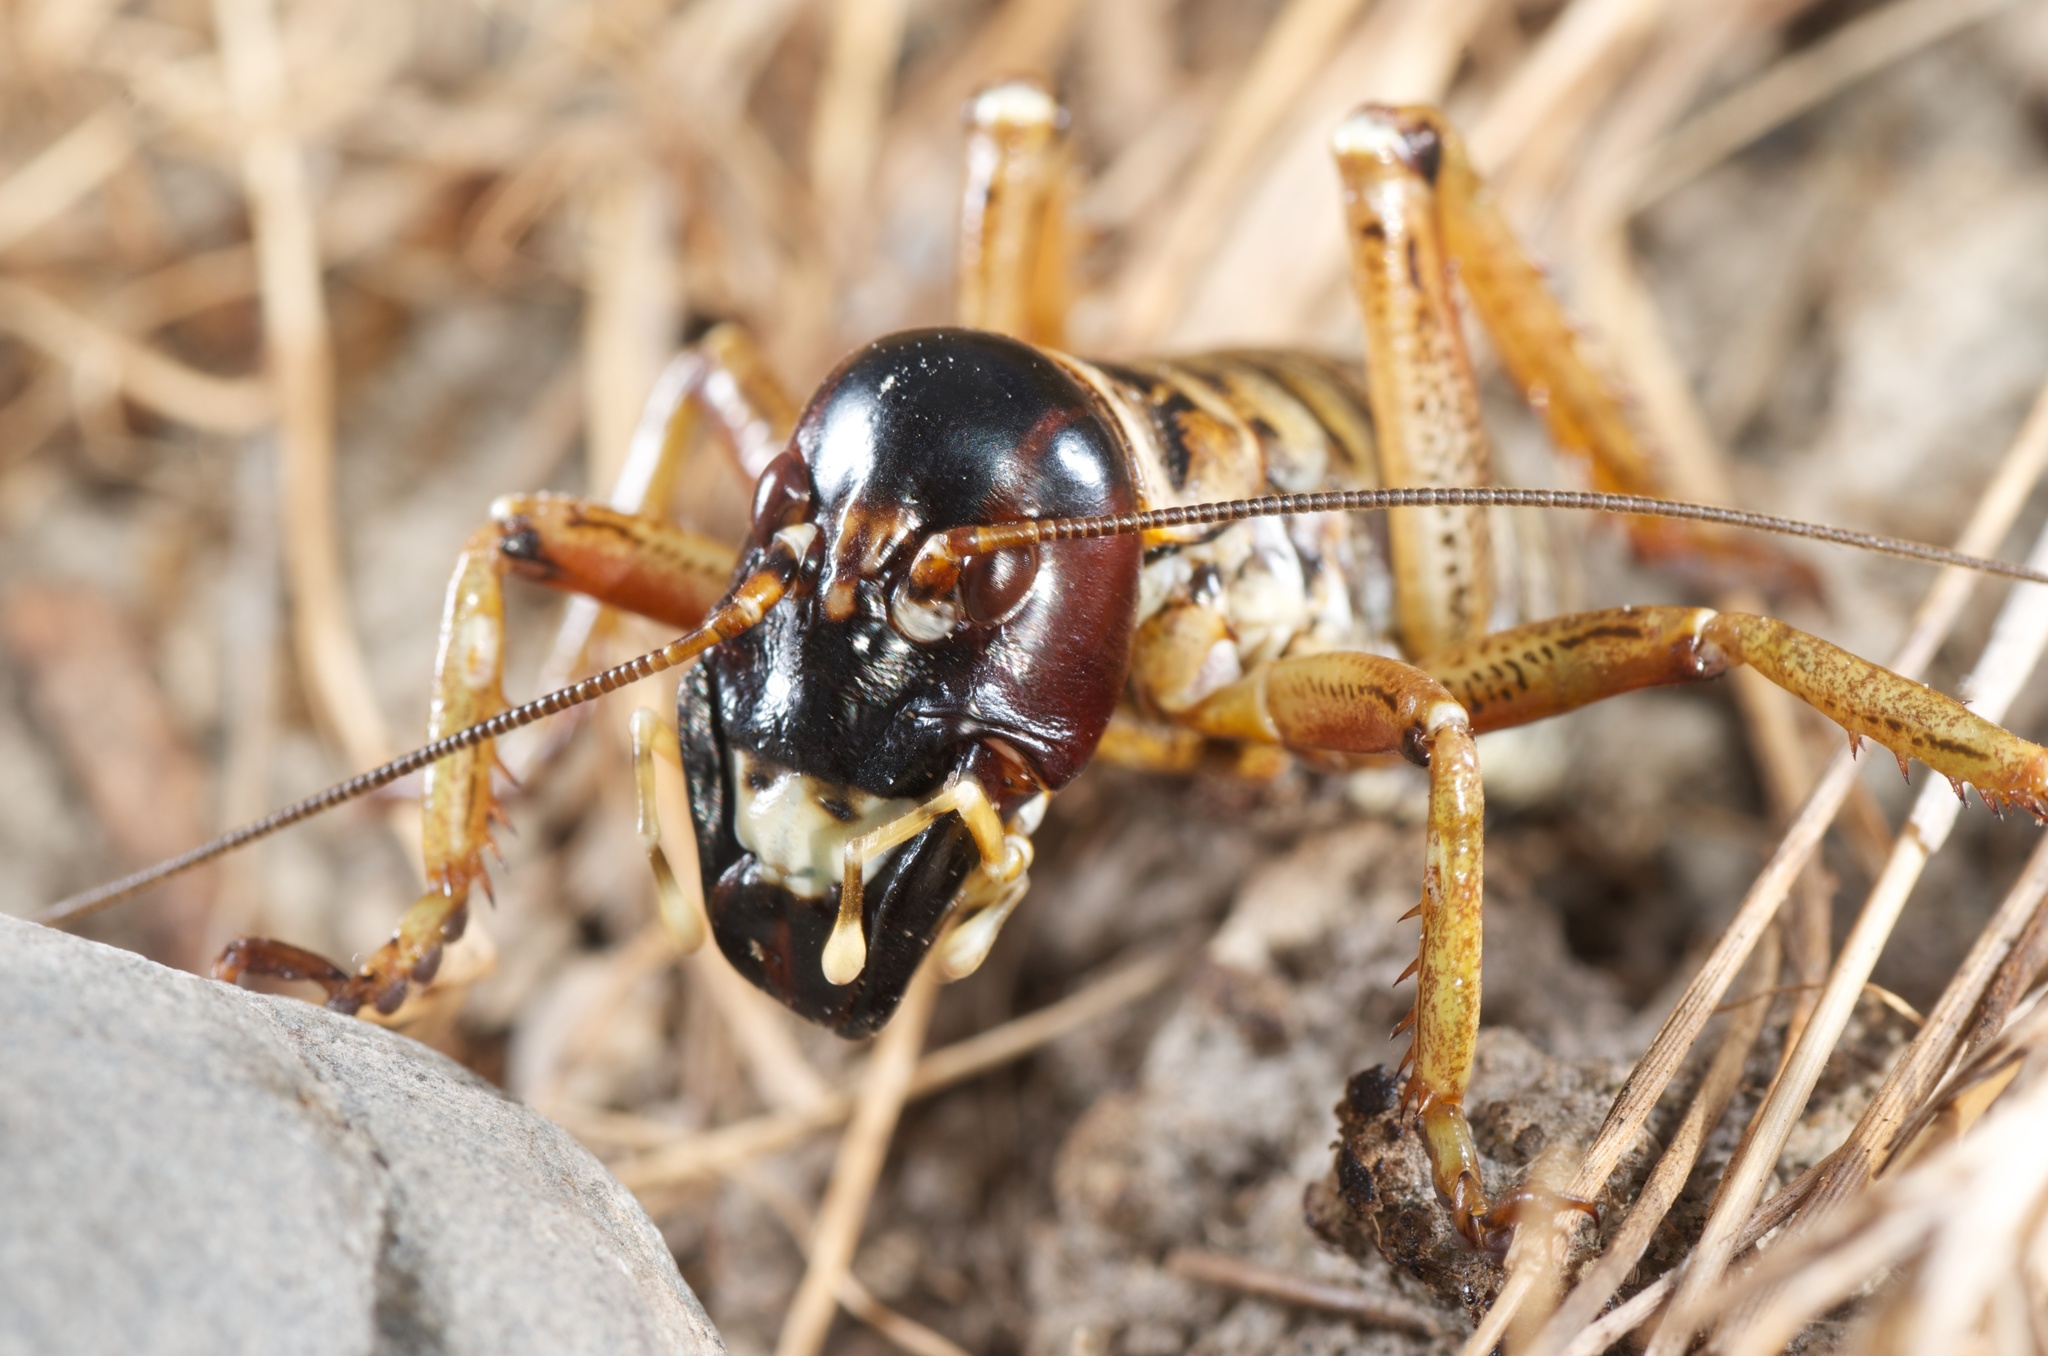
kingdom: Animalia
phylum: Arthropoda
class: Insecta
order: Orthoptera
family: Anostostomatidae
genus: Hemideina
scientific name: Hemideina maori
